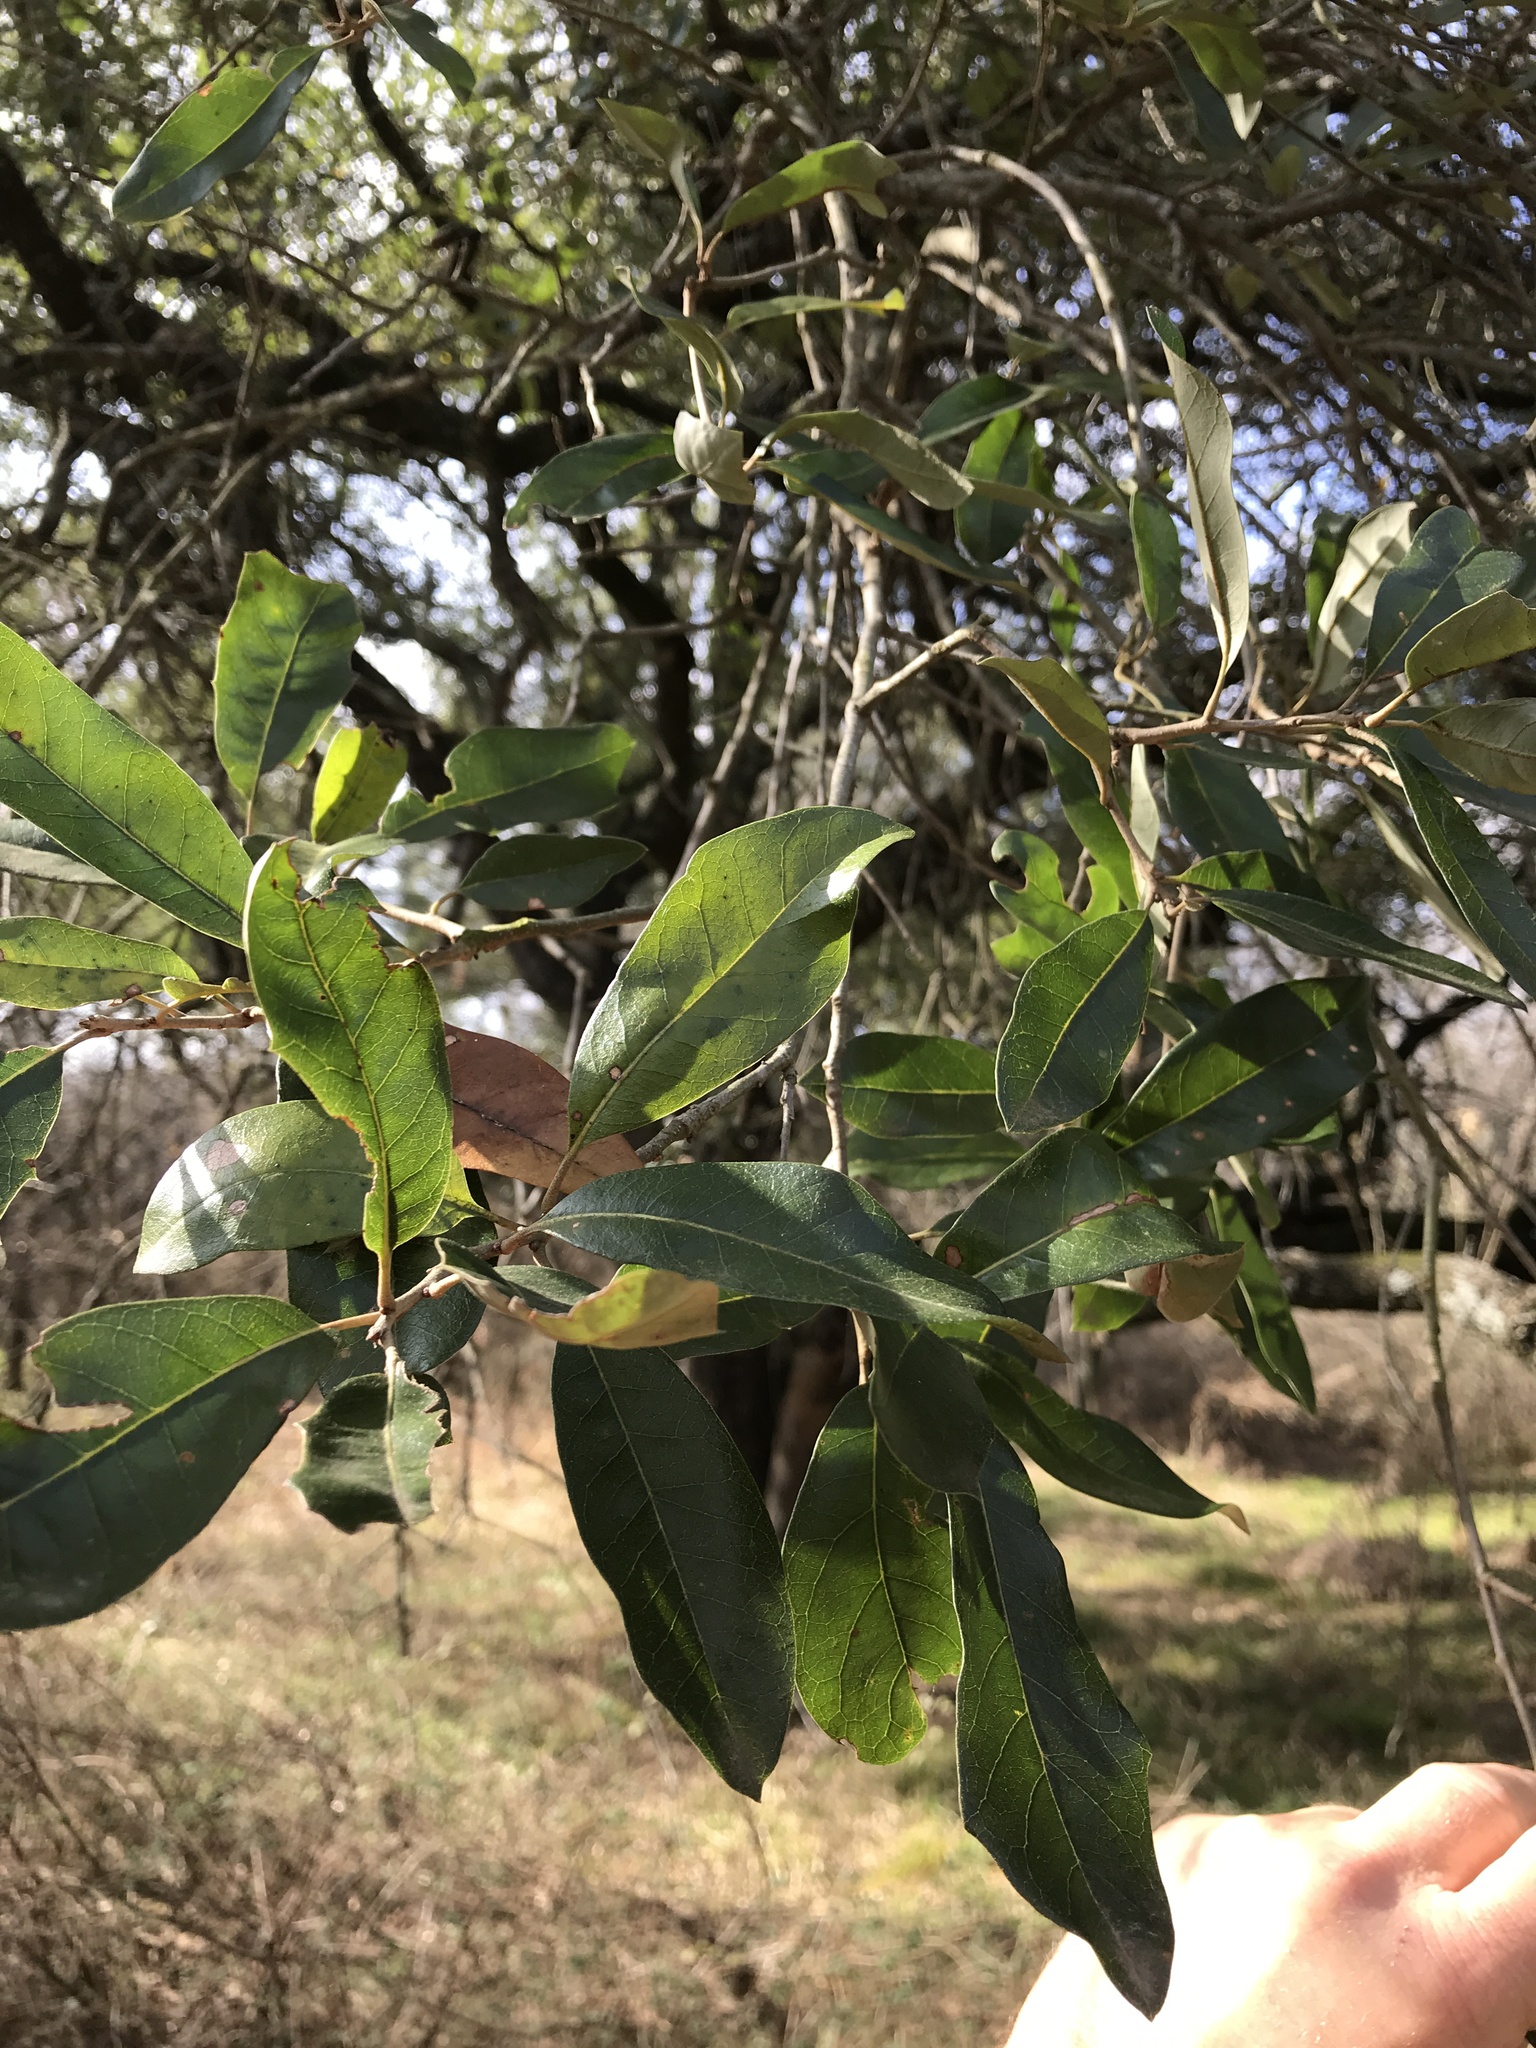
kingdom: Plantae
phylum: Tracheophyta
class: Magnoliopsida
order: Fagales
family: Fagaceae
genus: Quercus
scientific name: Quercus fusiformis
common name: Texas live oak
